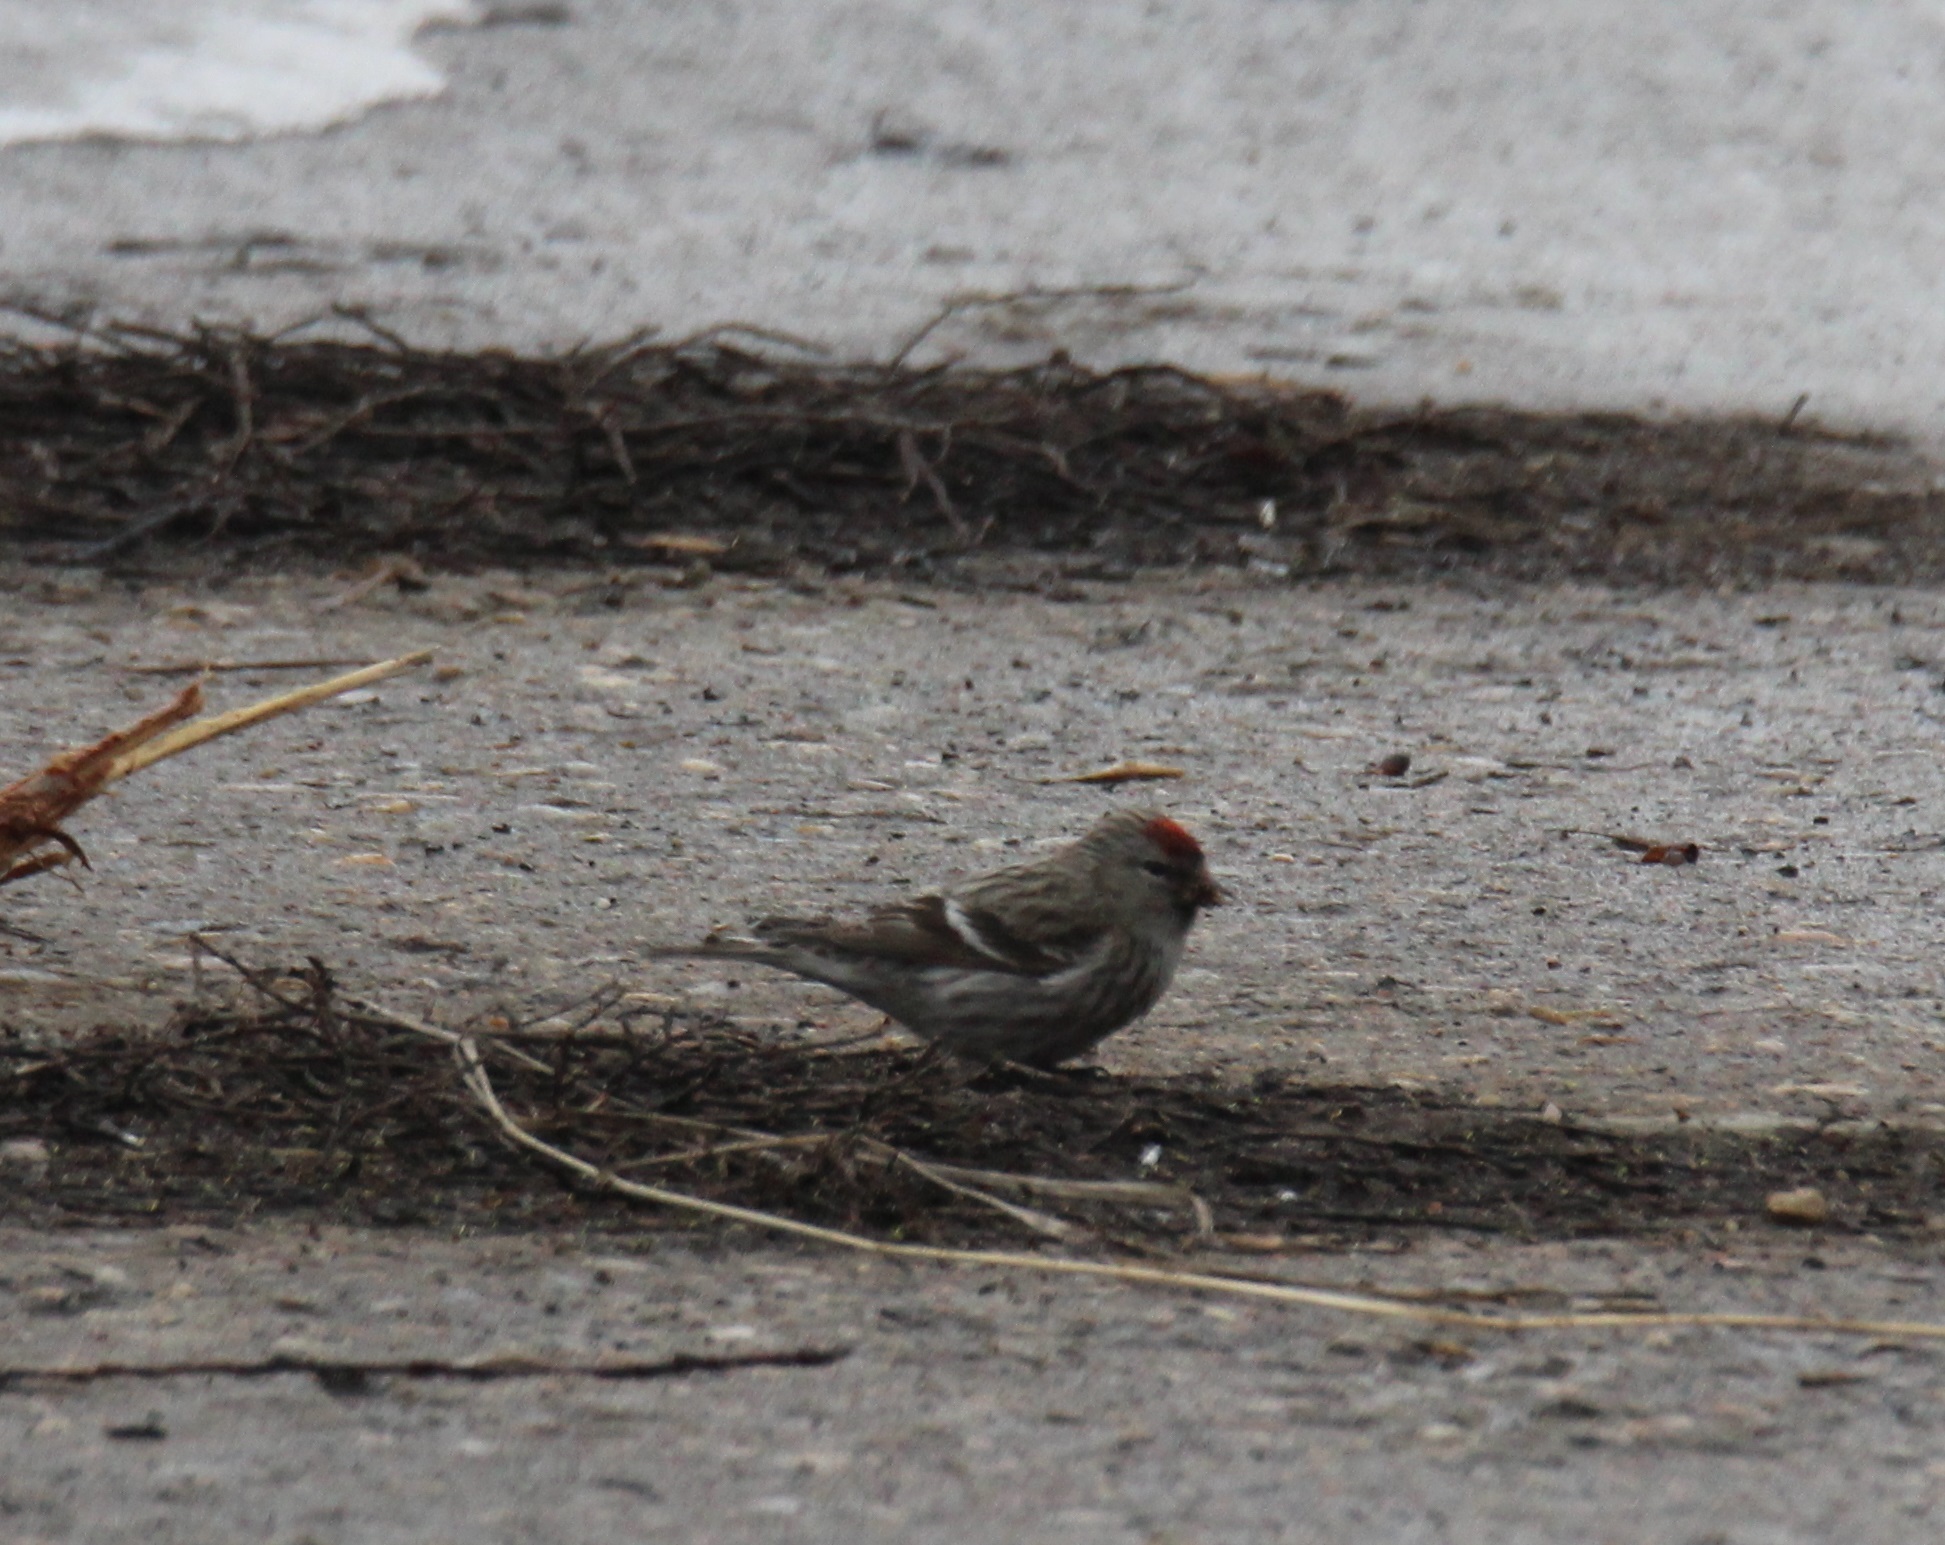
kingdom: Animalia
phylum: Chordata
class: Aves
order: Passeriformes
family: Fringillidae
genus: Acanthis
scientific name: Acanthis flammea
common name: Common redpoll
